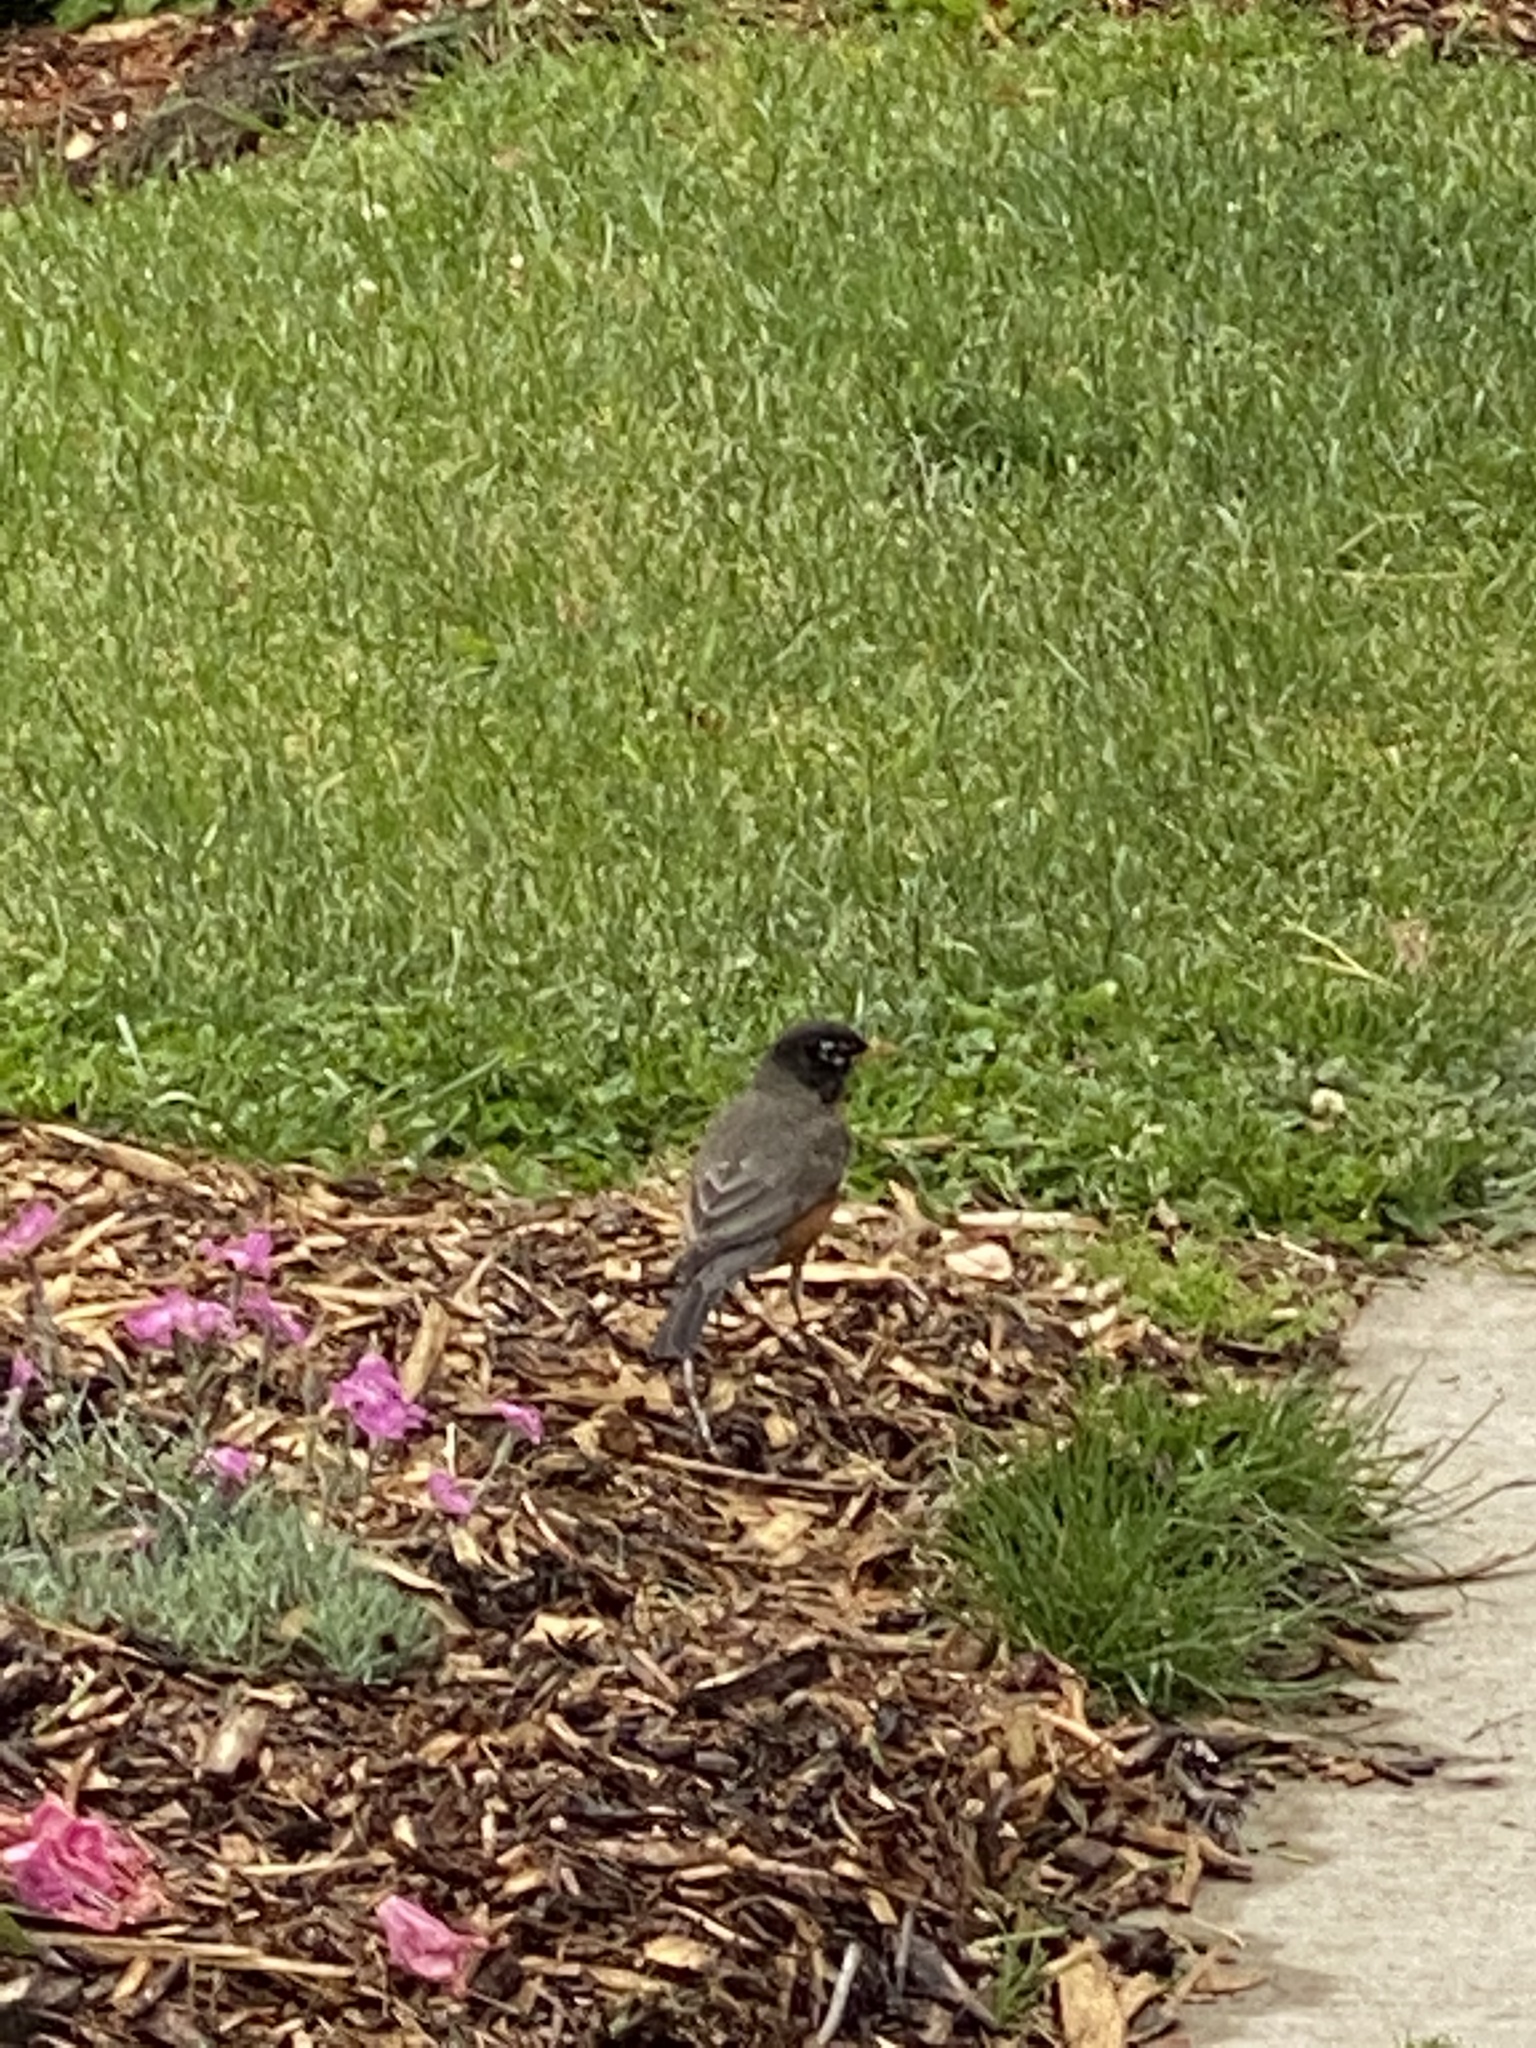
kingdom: Animalia
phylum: Chordata
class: Aves
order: Passeriformes
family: Turdidae
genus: Turdus
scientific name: Turdus migratorius
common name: American robin
